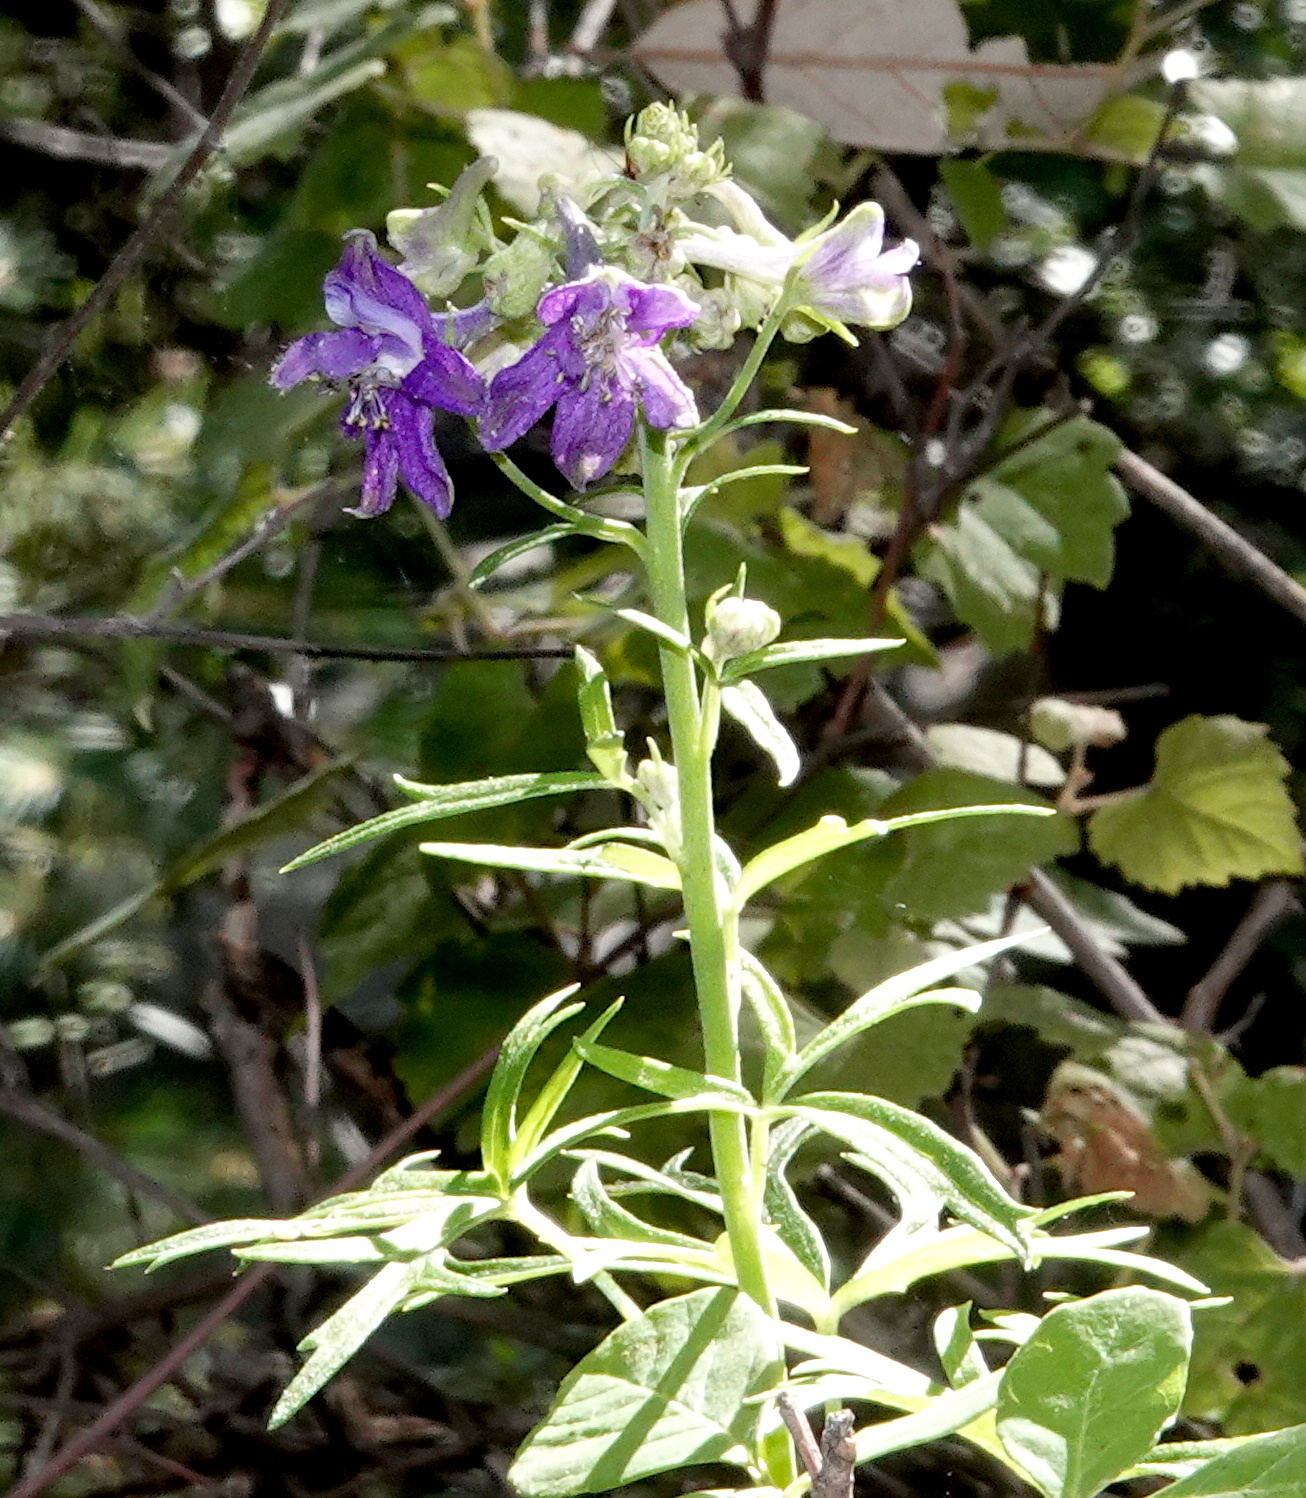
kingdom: Plantae
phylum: Tracheophyta
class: Magnoliopsida
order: Ranunculales
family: Ranunculaceae
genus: Delphinium
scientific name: Delphinium scopulorum
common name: Rocky mountain larkspur
